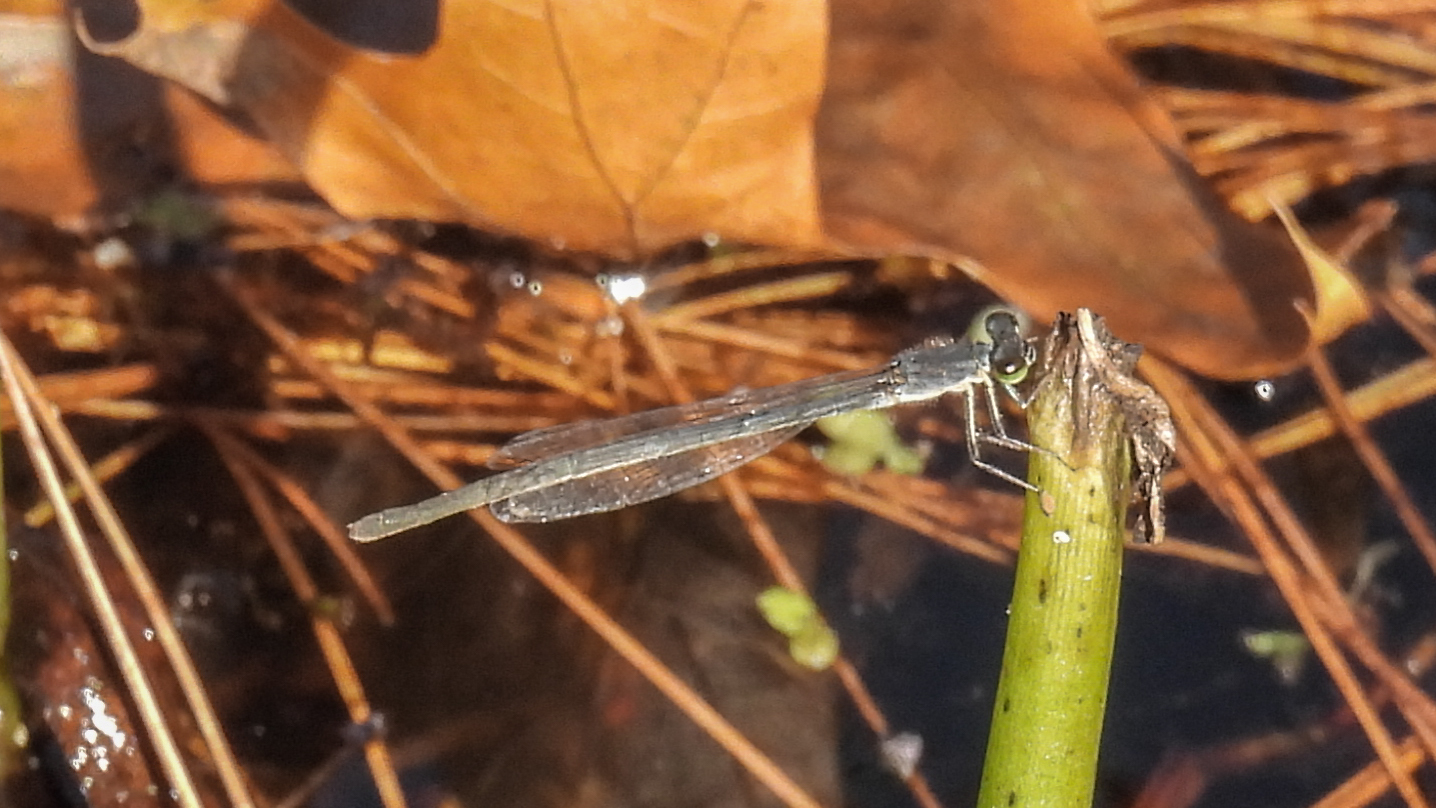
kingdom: Animalia
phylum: Arthropoda
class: Insecta
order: Odonata
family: Coenagrionidae
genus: Ischnura
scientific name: Ischnura posita
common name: Fragile forktail
